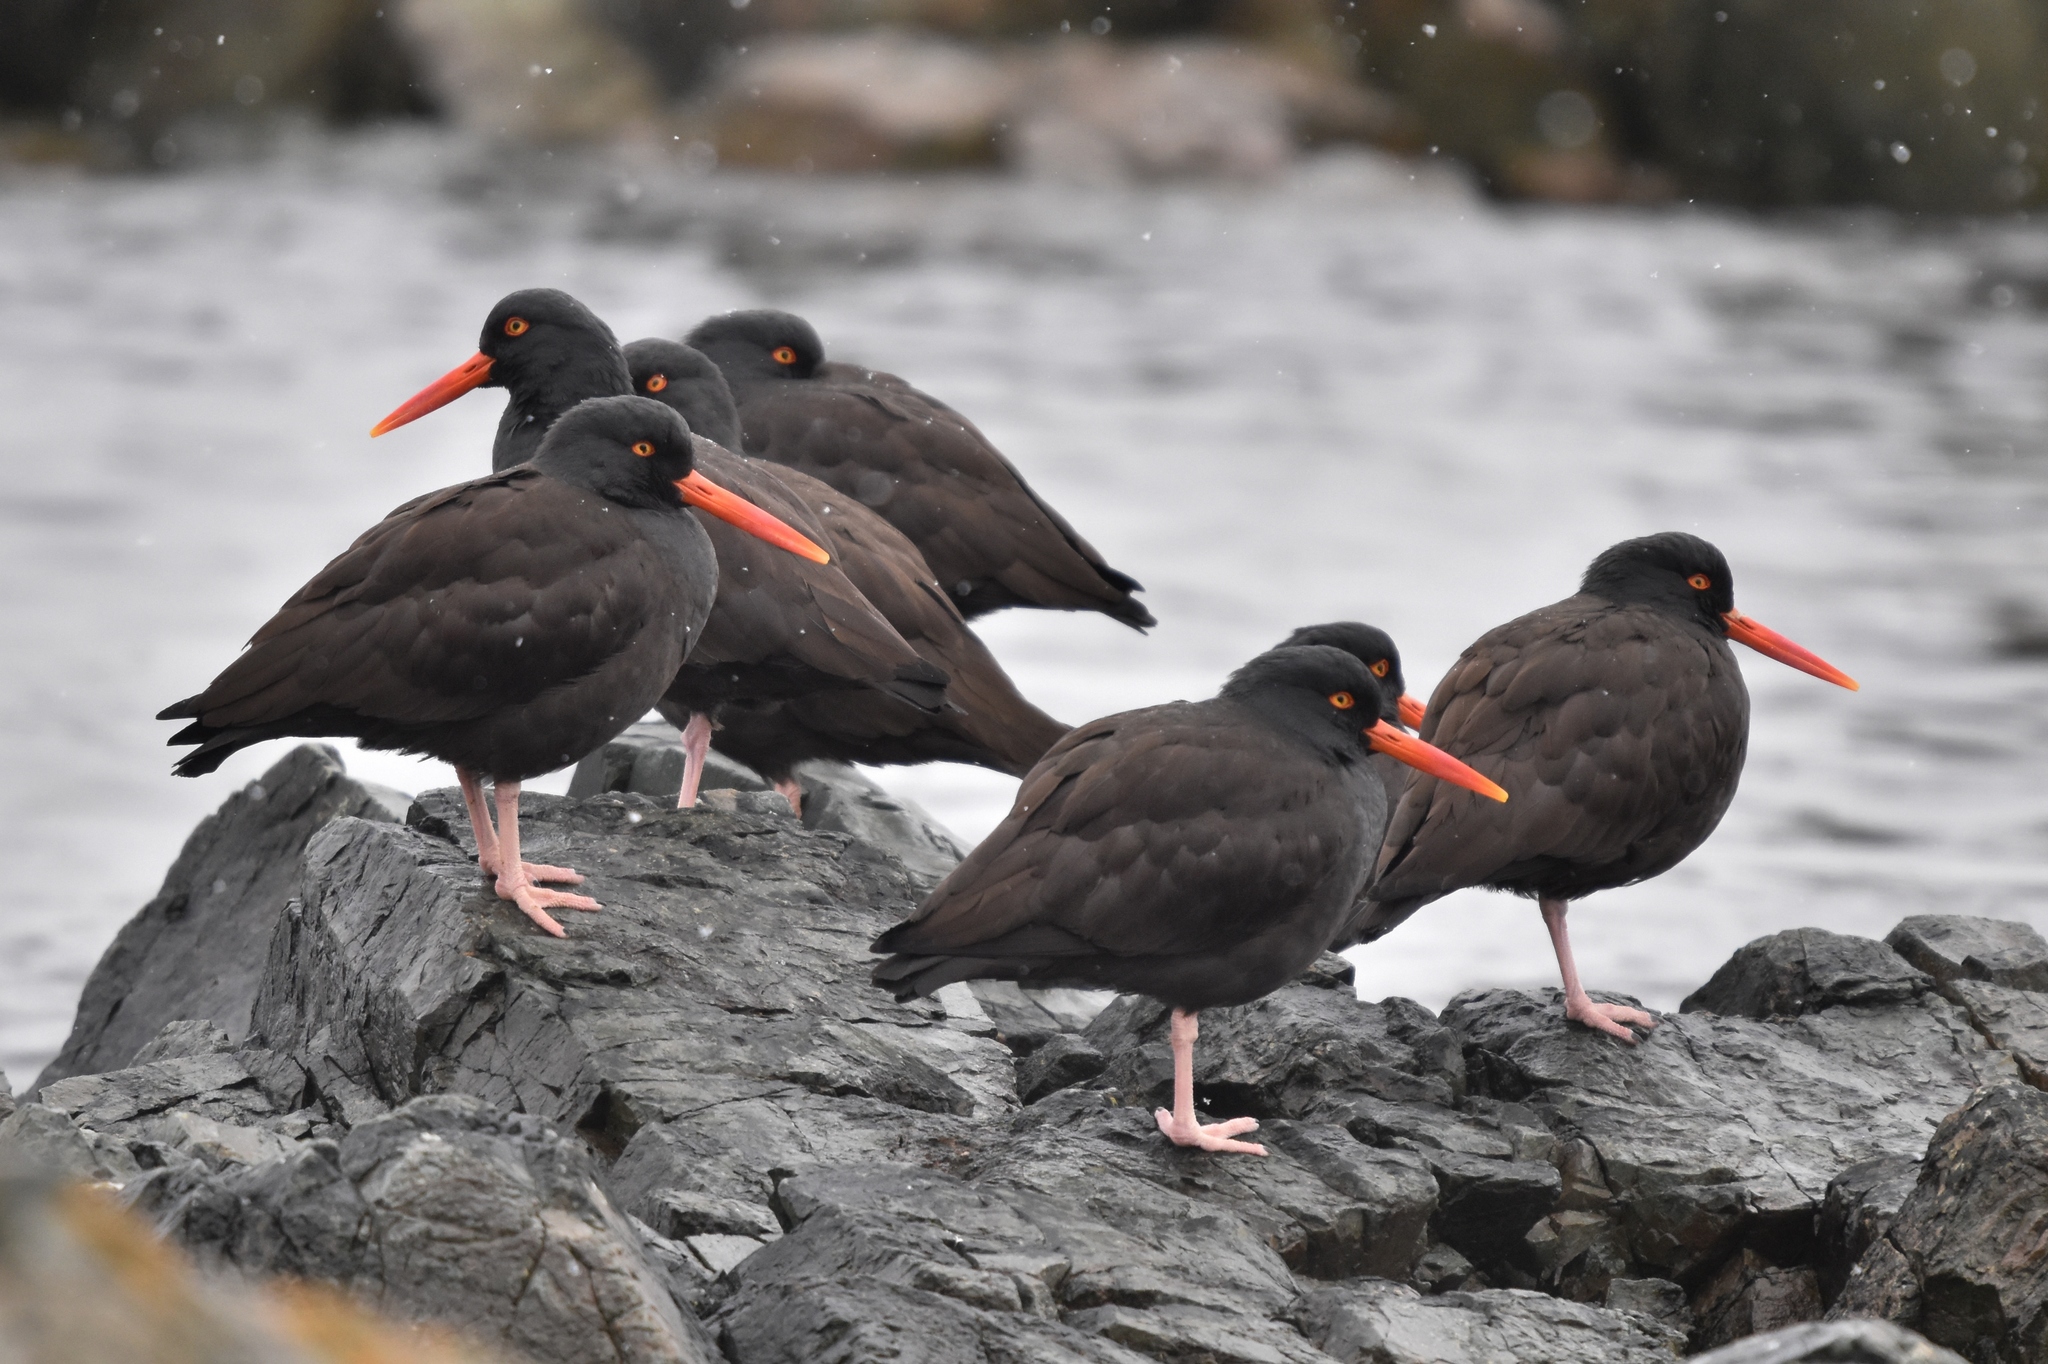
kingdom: Animalia
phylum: Chordata
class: Aves
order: Charadriiformes
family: Haematopodidae
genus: Haematopus
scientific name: Haematopus bachmani
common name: Black oystercatcher
